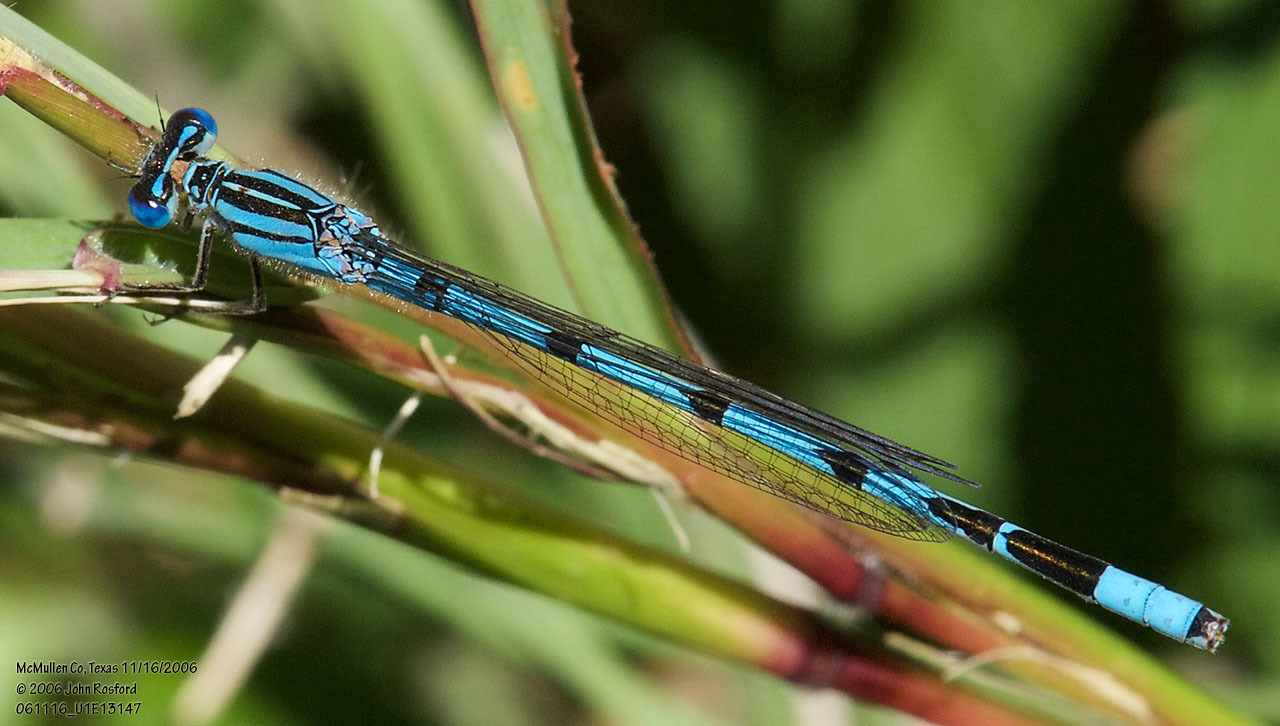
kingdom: Animalia
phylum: Arthropoda
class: Insecta
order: Odonata
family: Coenagrionidae
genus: Enallagma
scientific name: Enallagma durum
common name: Big bluet
